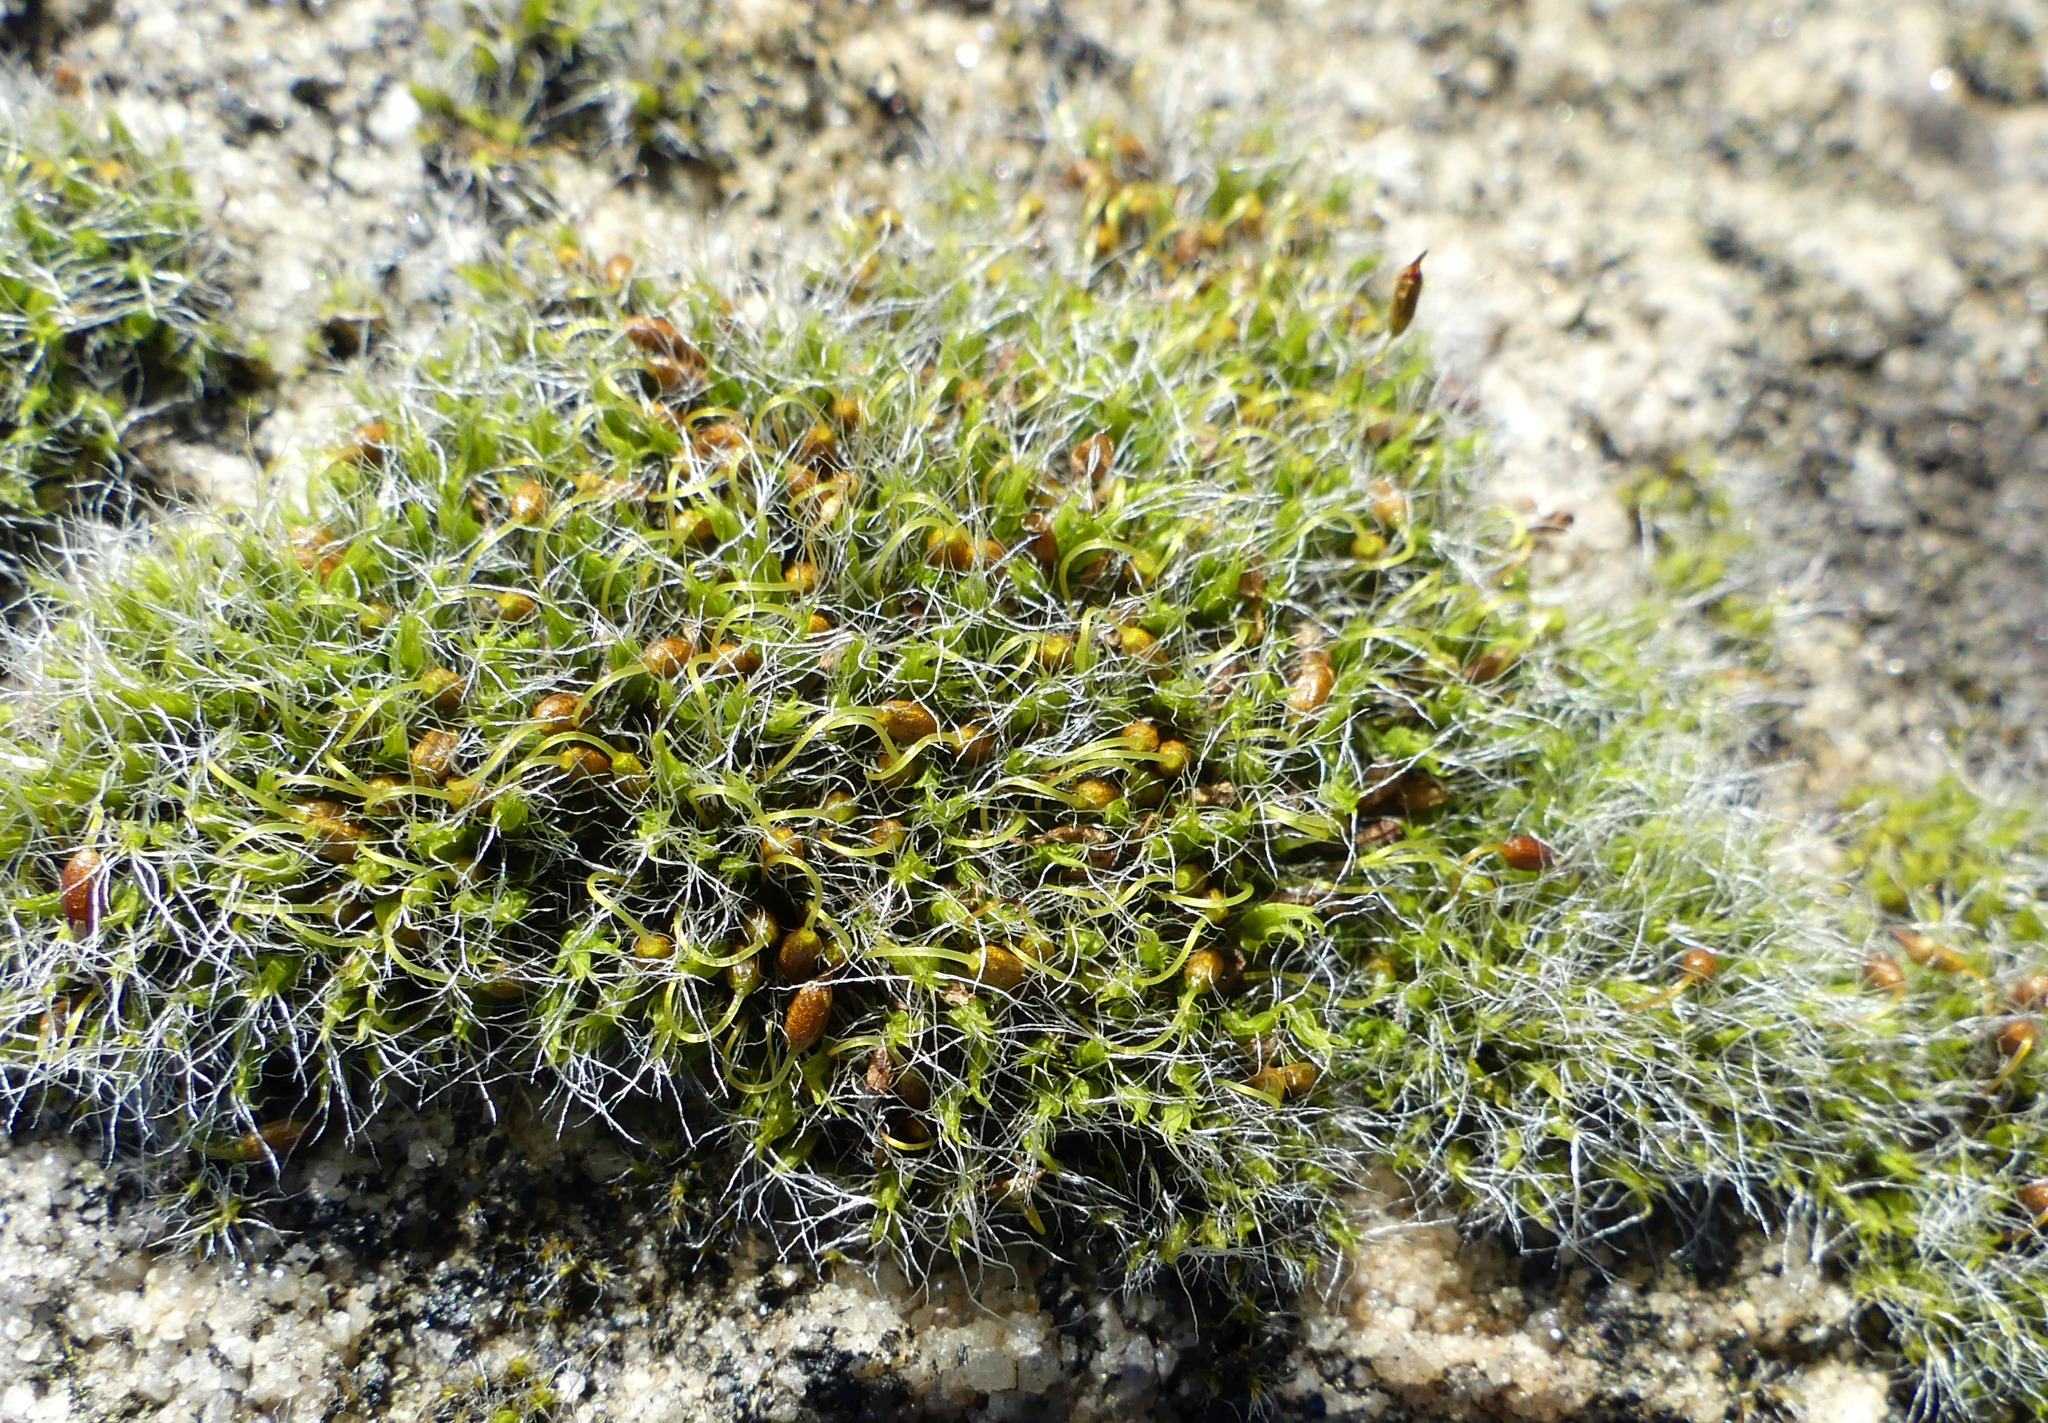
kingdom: Plantae
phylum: Bryophyta
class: Bryopsida
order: Grimmiales
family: Grimmiaceae
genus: Grimmia
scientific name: Grimmia pulvinata
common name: Grey-cushioned grimmia
